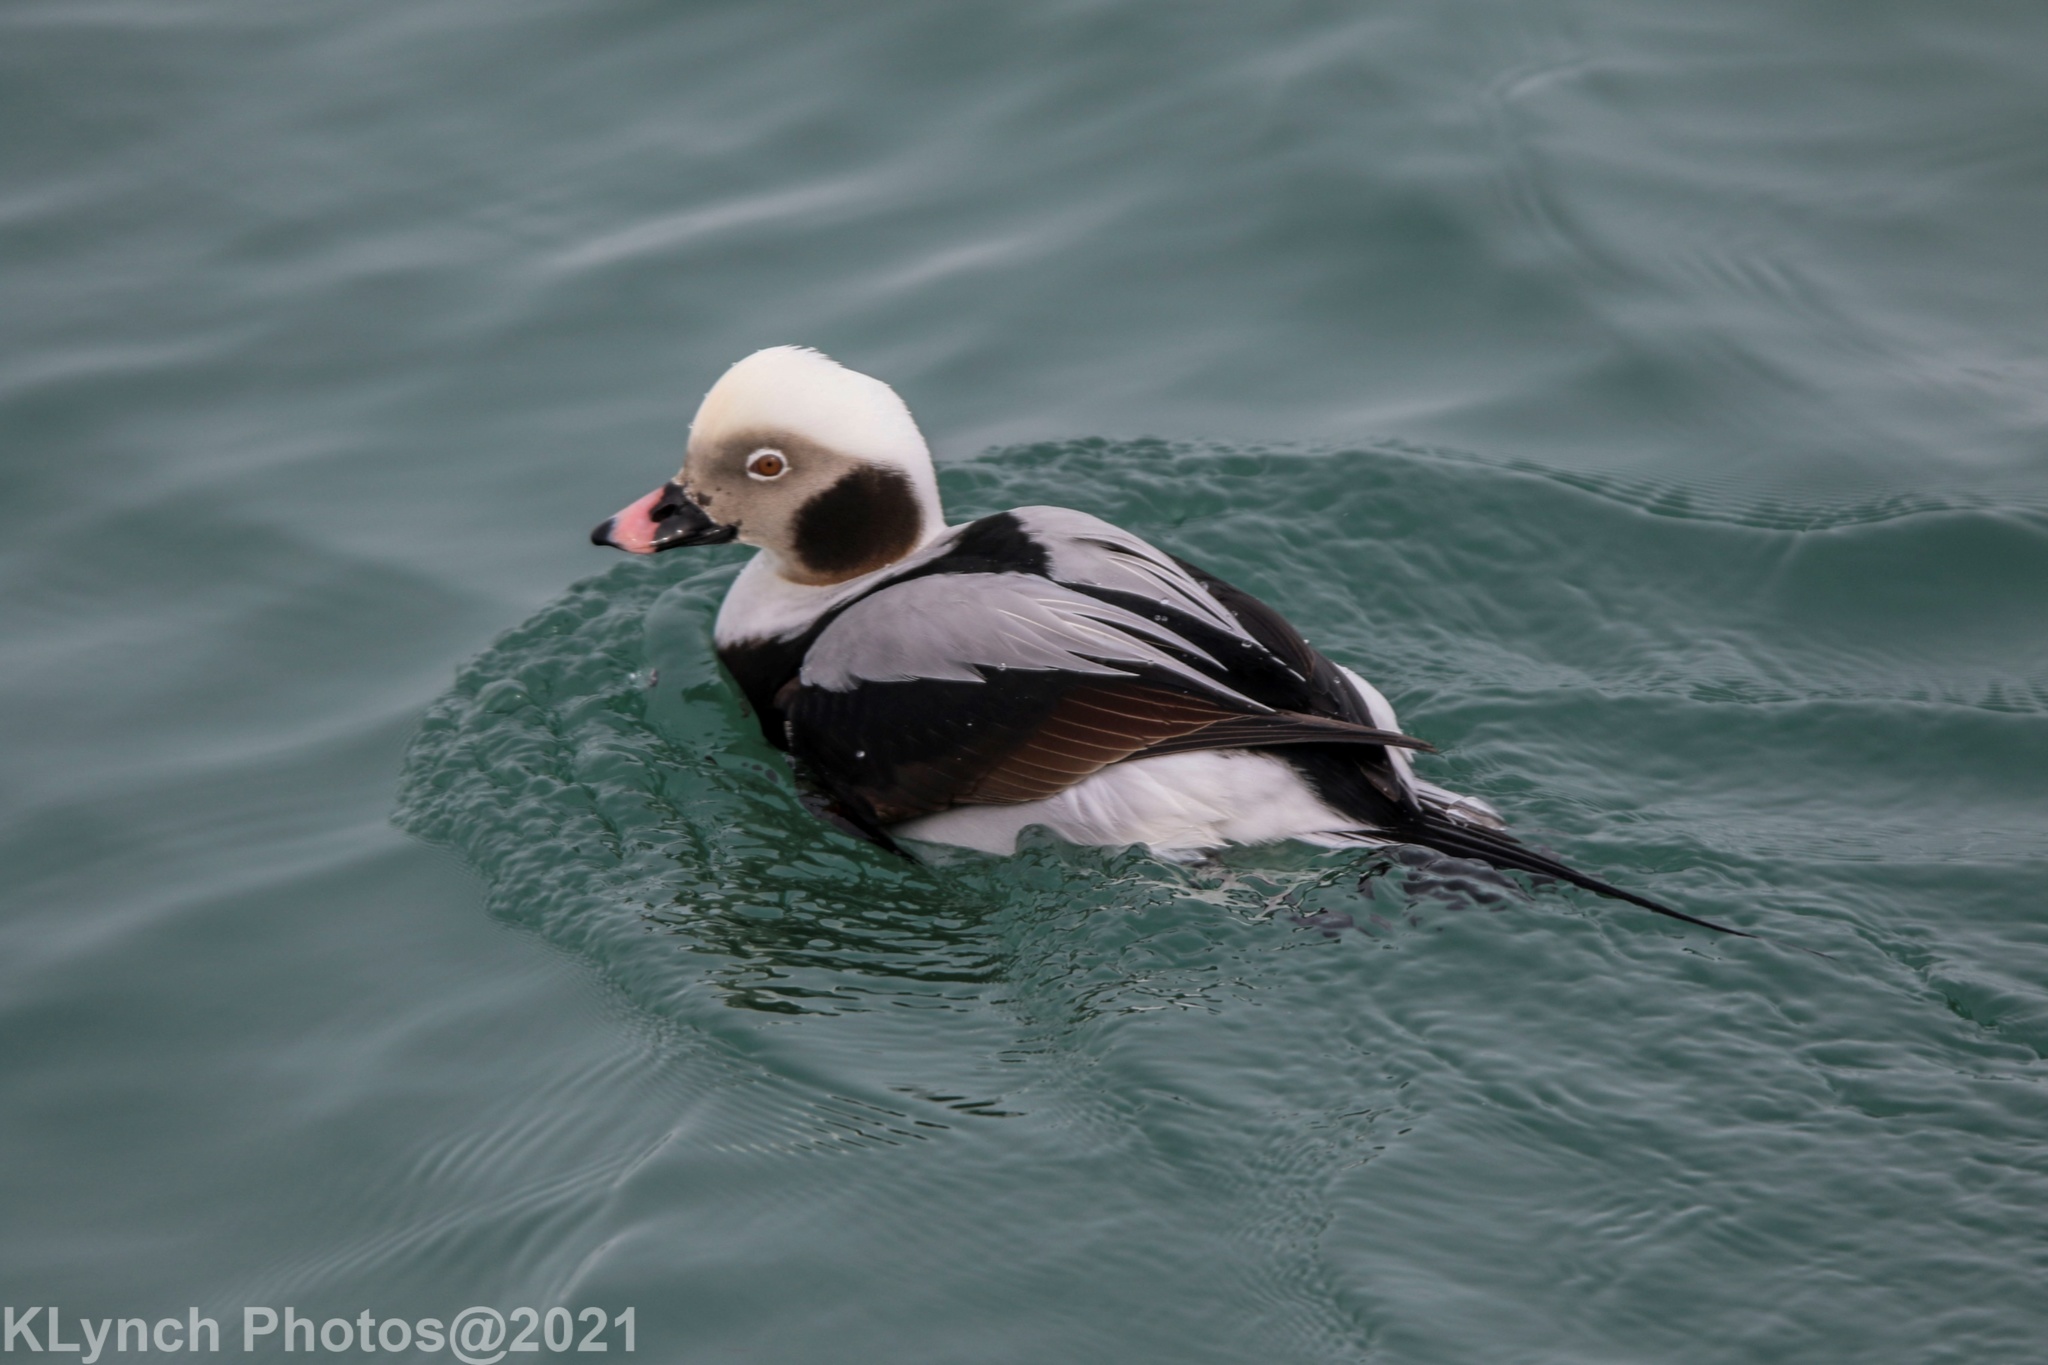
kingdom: Animalia
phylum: Chordata
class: Aves
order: Anseriformes
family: Anatidae
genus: Clangula
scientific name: Clangula hyemalis
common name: Long-tailed duck
